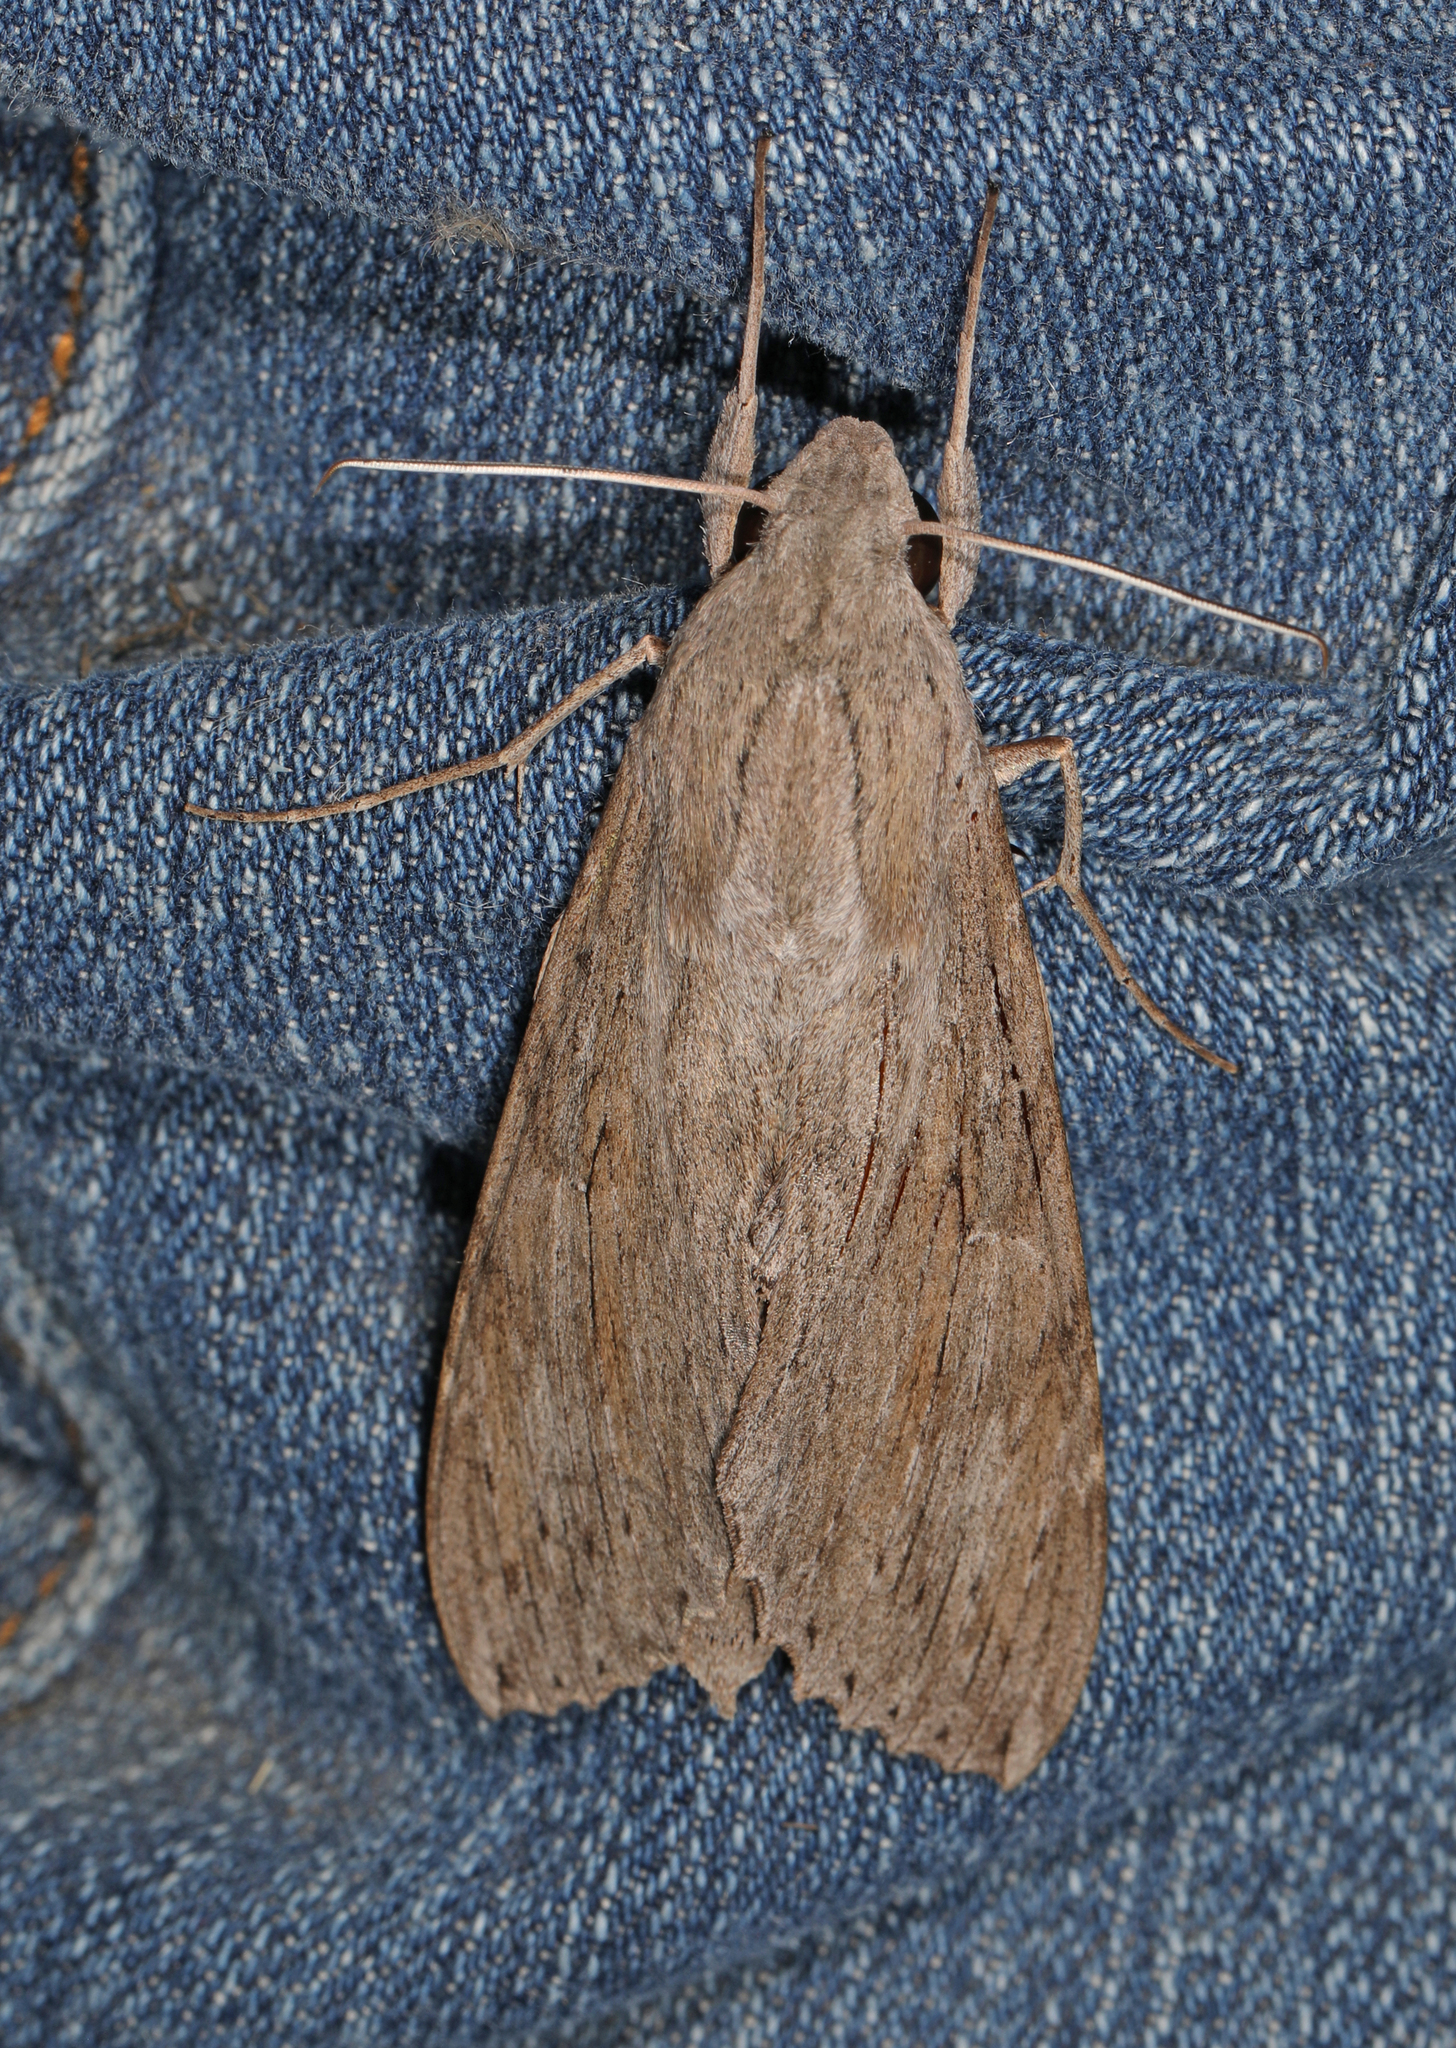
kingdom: Animalia
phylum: Arthropoda
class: Insecta
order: Lepidoptera
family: Sphingidae
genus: Erinnyis
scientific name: Erinnyis ello
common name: Ello sphinx
